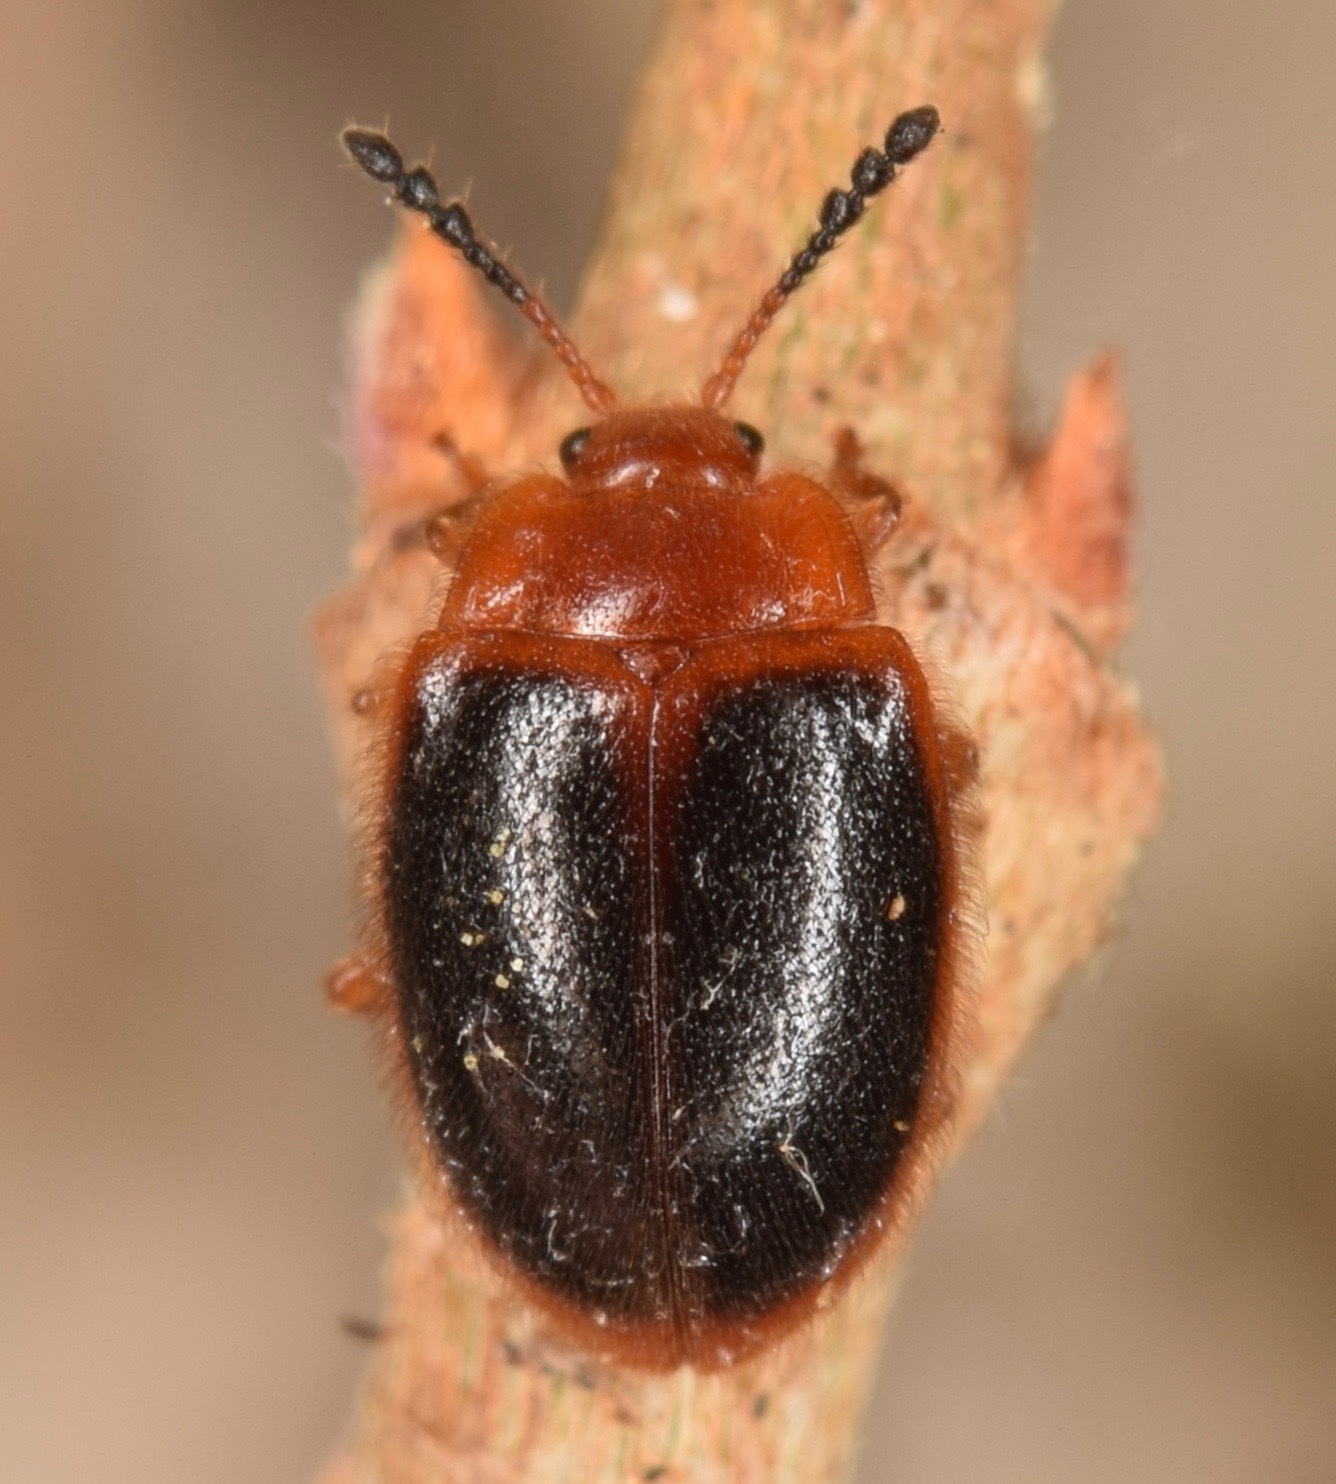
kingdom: Animalia
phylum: Arthropoda
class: Insecta
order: Coleoptera
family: Endomychidae
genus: Stenotarsus
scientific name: Stenotarsus hispidus
